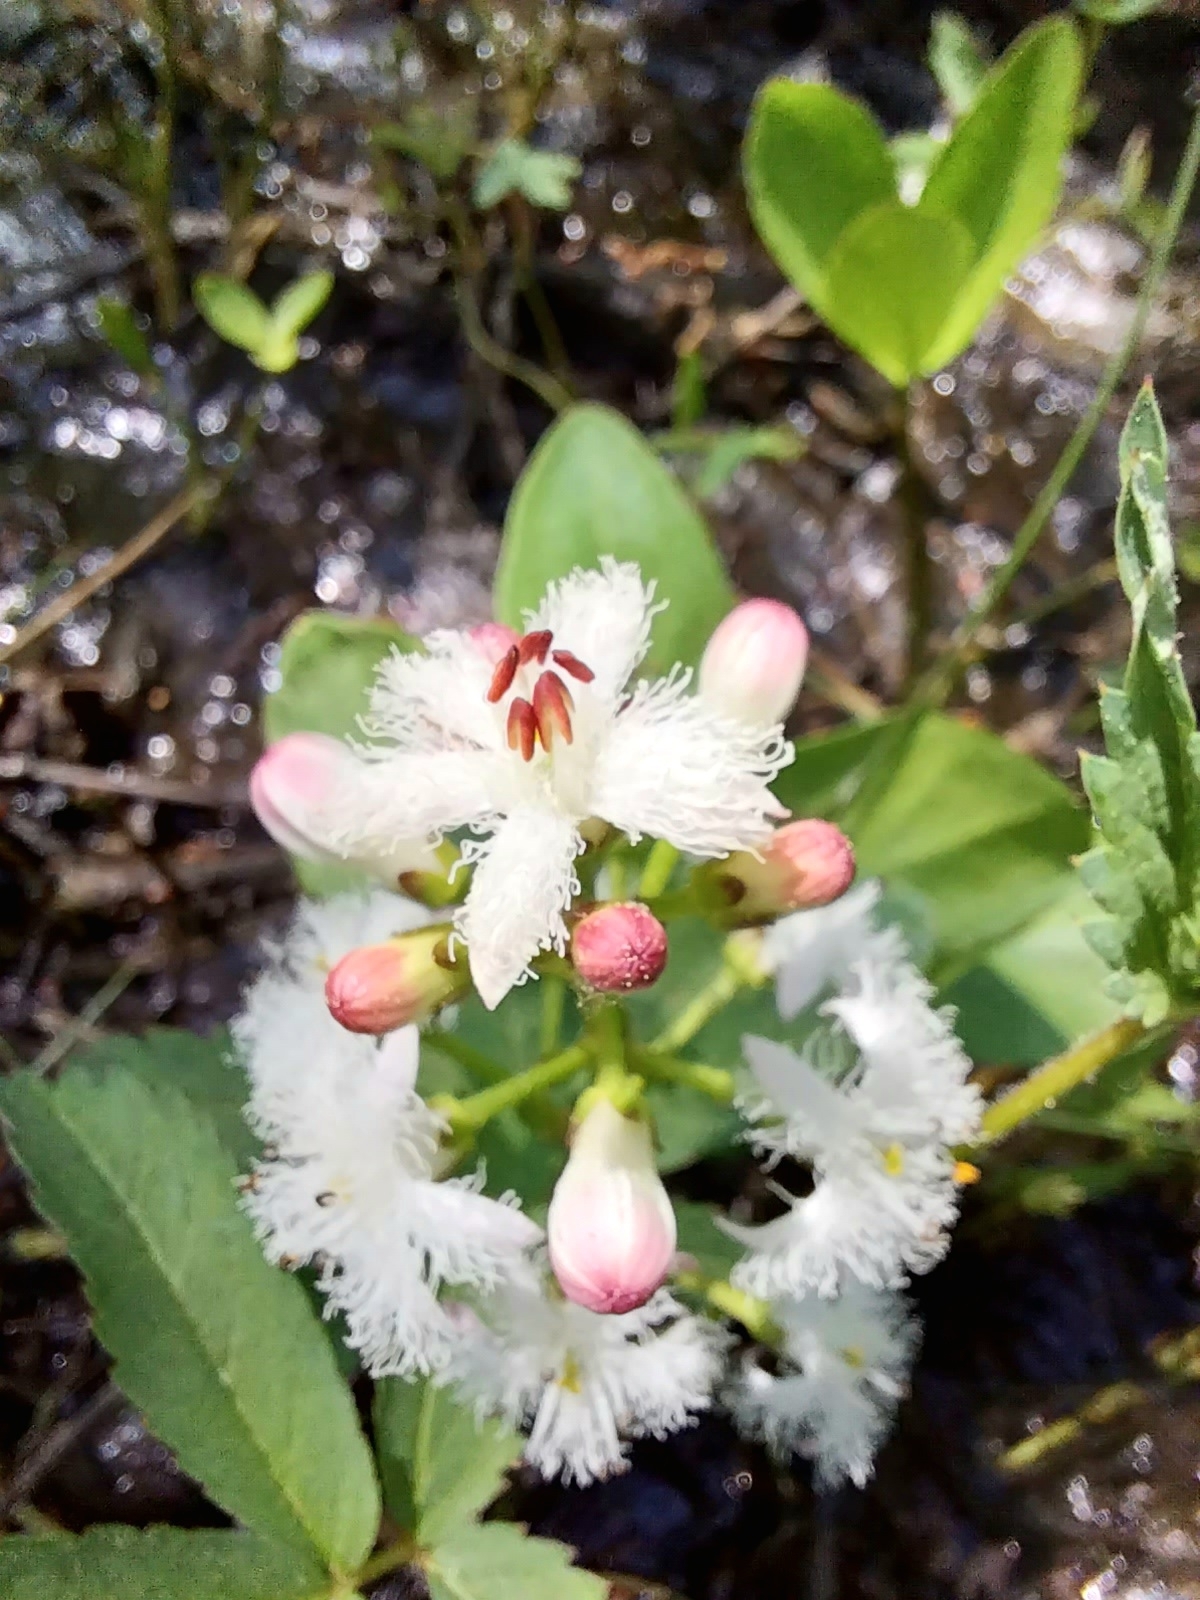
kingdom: Plantae
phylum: Tracheophyta
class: Magnoliopsida
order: Asterales
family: Menyanthaceae
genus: Menyanthes
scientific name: Menyanthes trifoliata
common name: Bogbean
